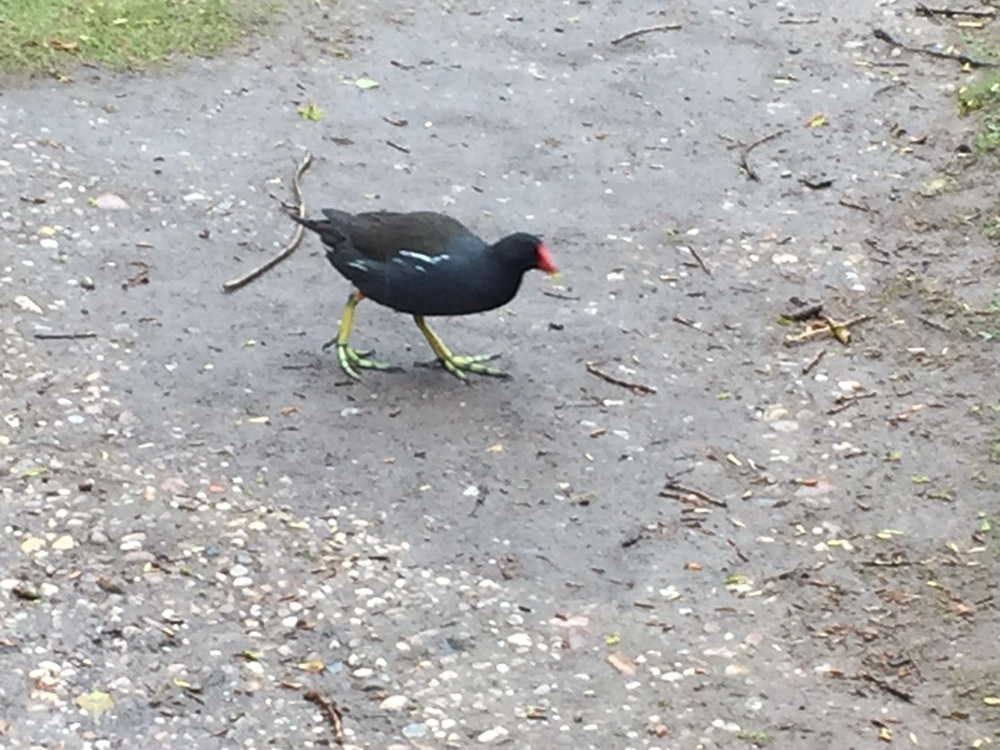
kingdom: Animalia
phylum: Chordata
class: Aves
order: Gruiformes
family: Rallidae
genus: Gallinula
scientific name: Gallinula chloropus
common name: Common moorhen
